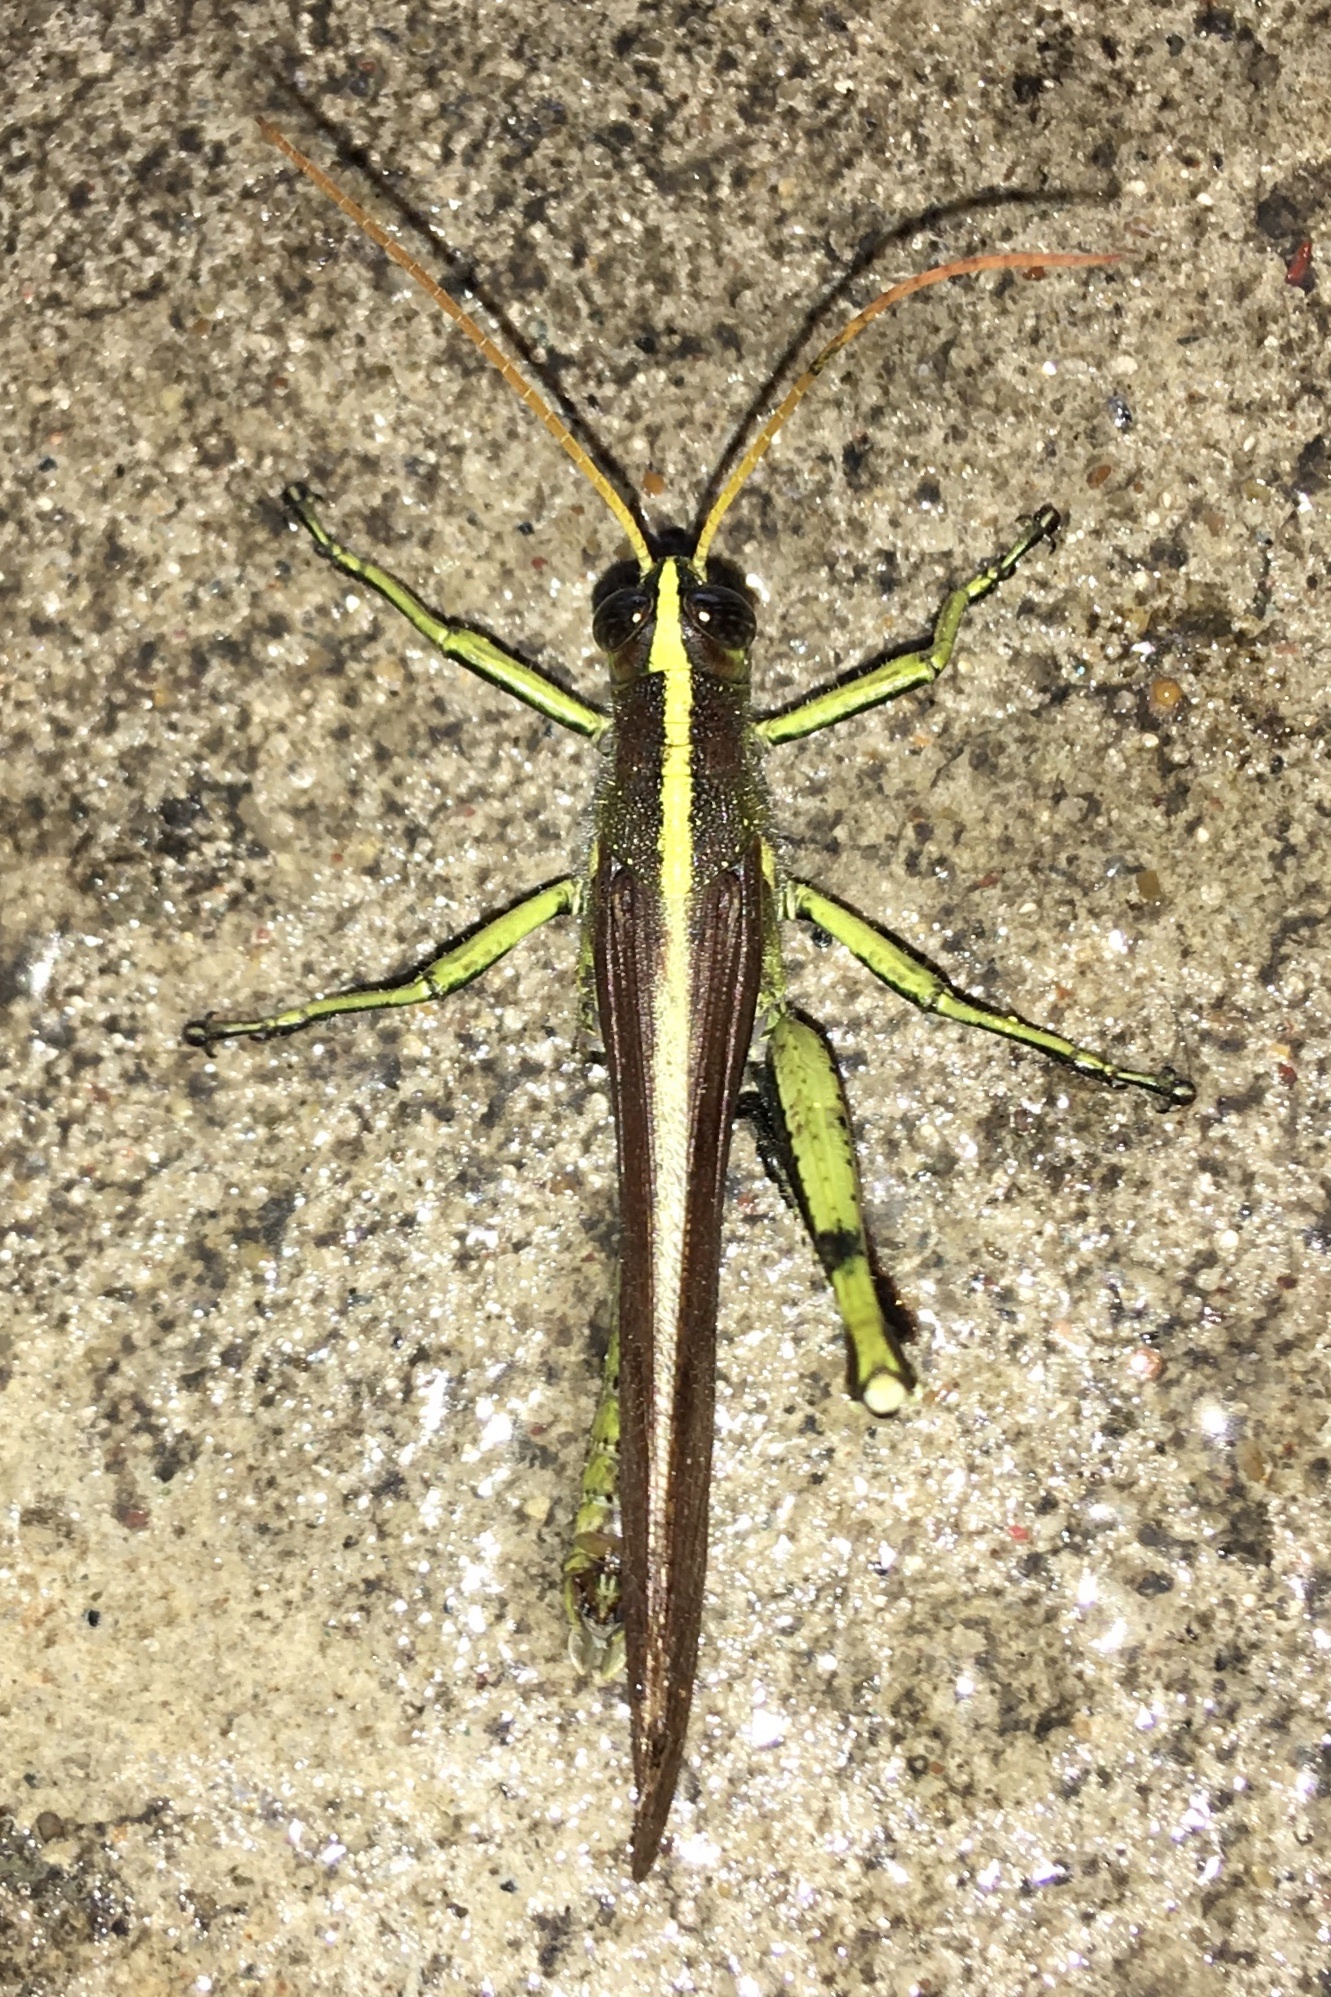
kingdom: Animalia
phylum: Arthropoda
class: Insecta
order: Orthoptera
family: Acrididae
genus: Schistocerca
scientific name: Schistocerca obscura
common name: Obscure bird grasshopper
